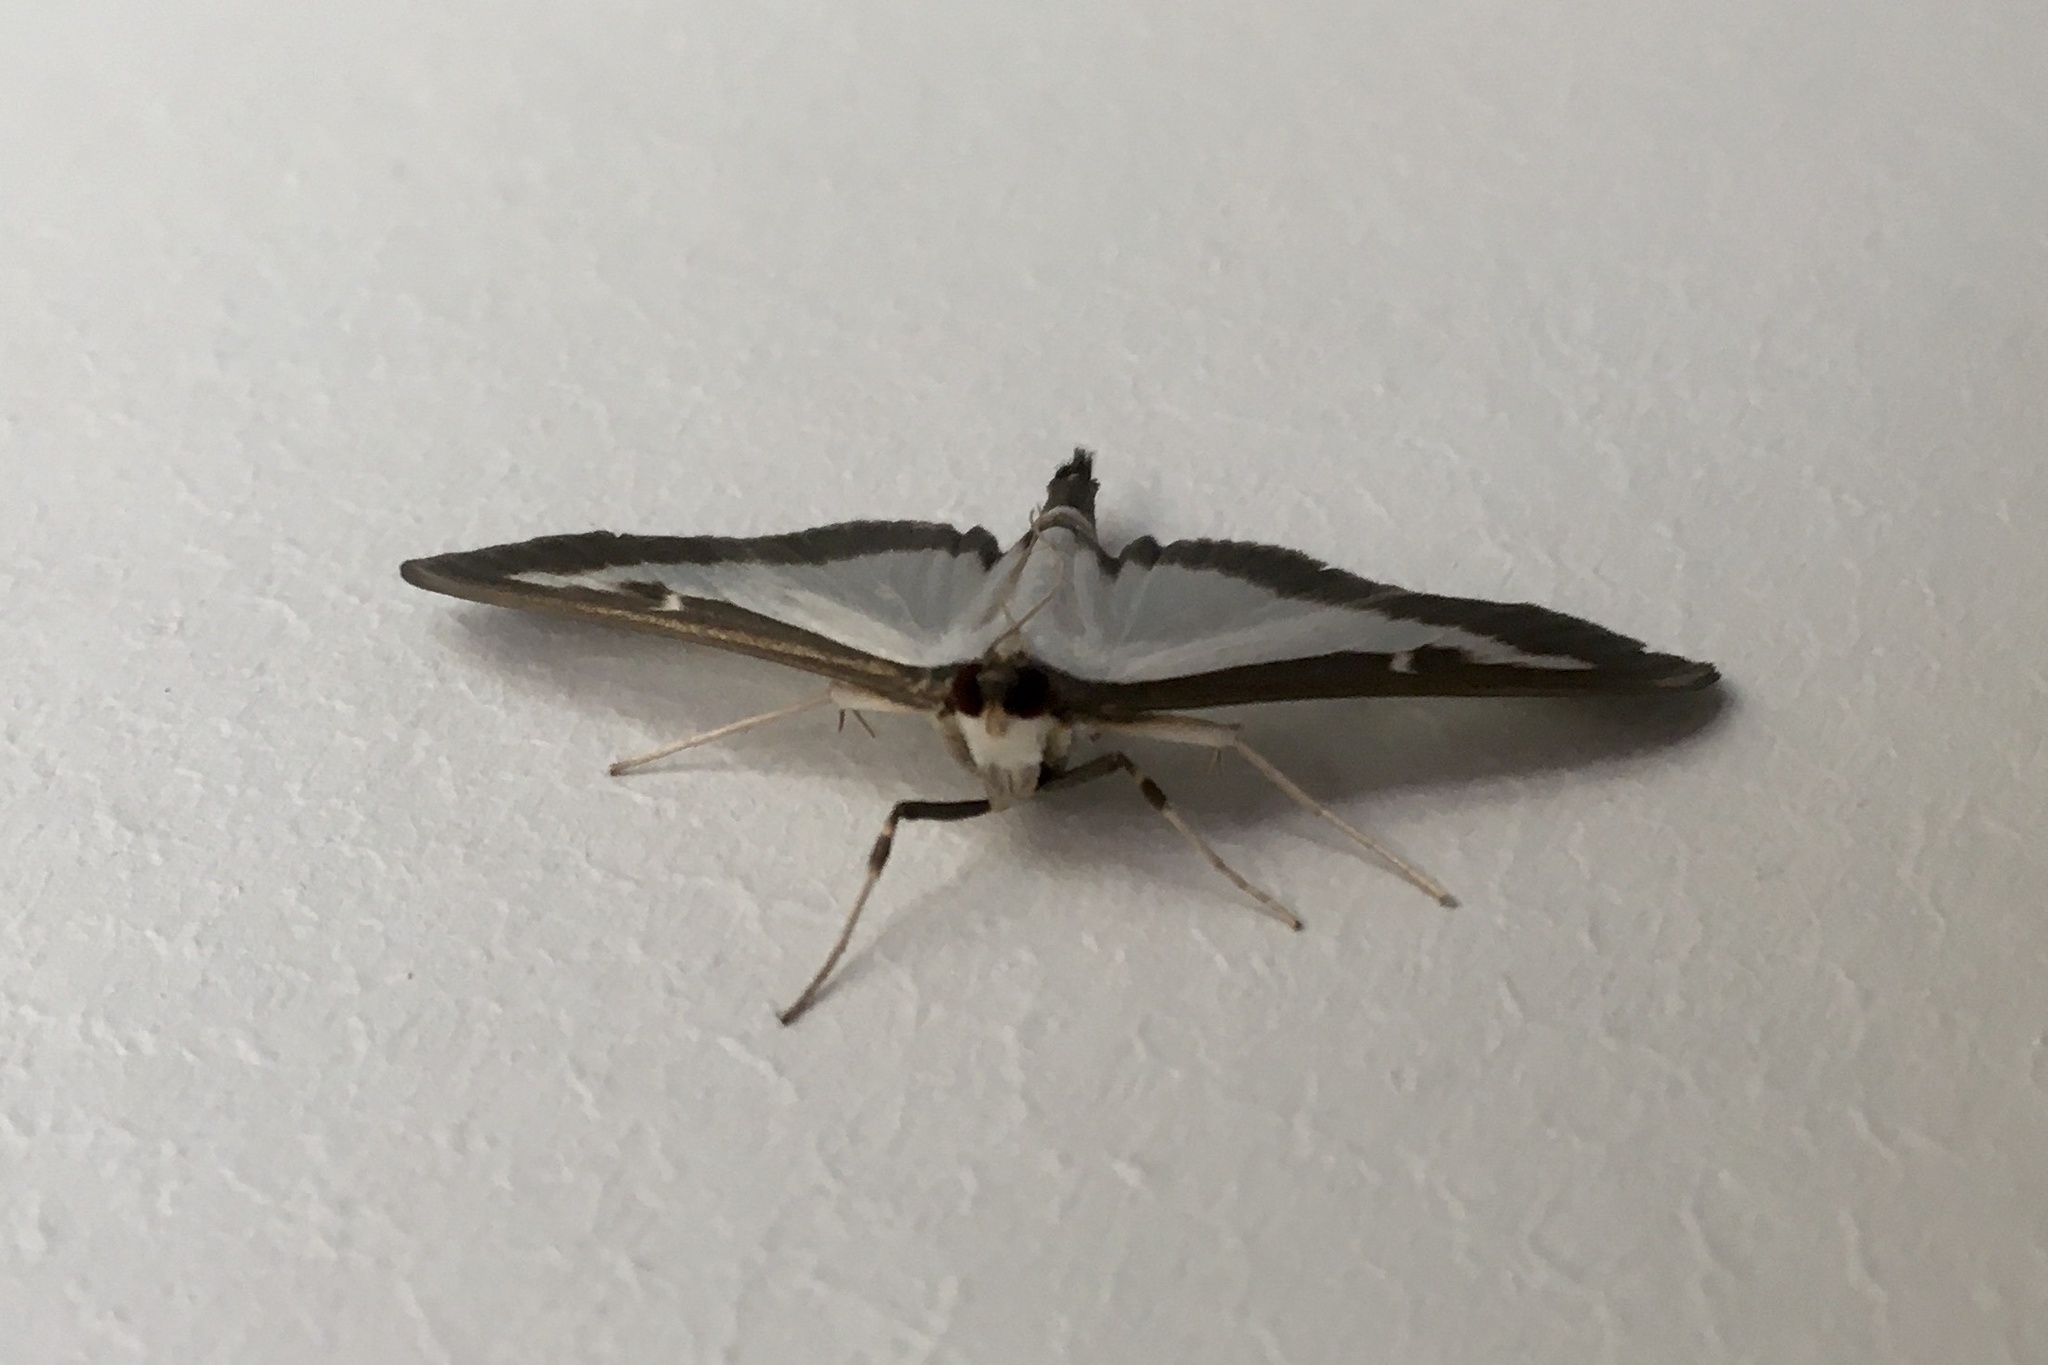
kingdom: Animalia
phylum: Arthropoda
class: Insecta
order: Lepidoptera
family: Crambidae
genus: Cydalima
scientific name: Cydalima perspectalis
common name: Box tree moth
